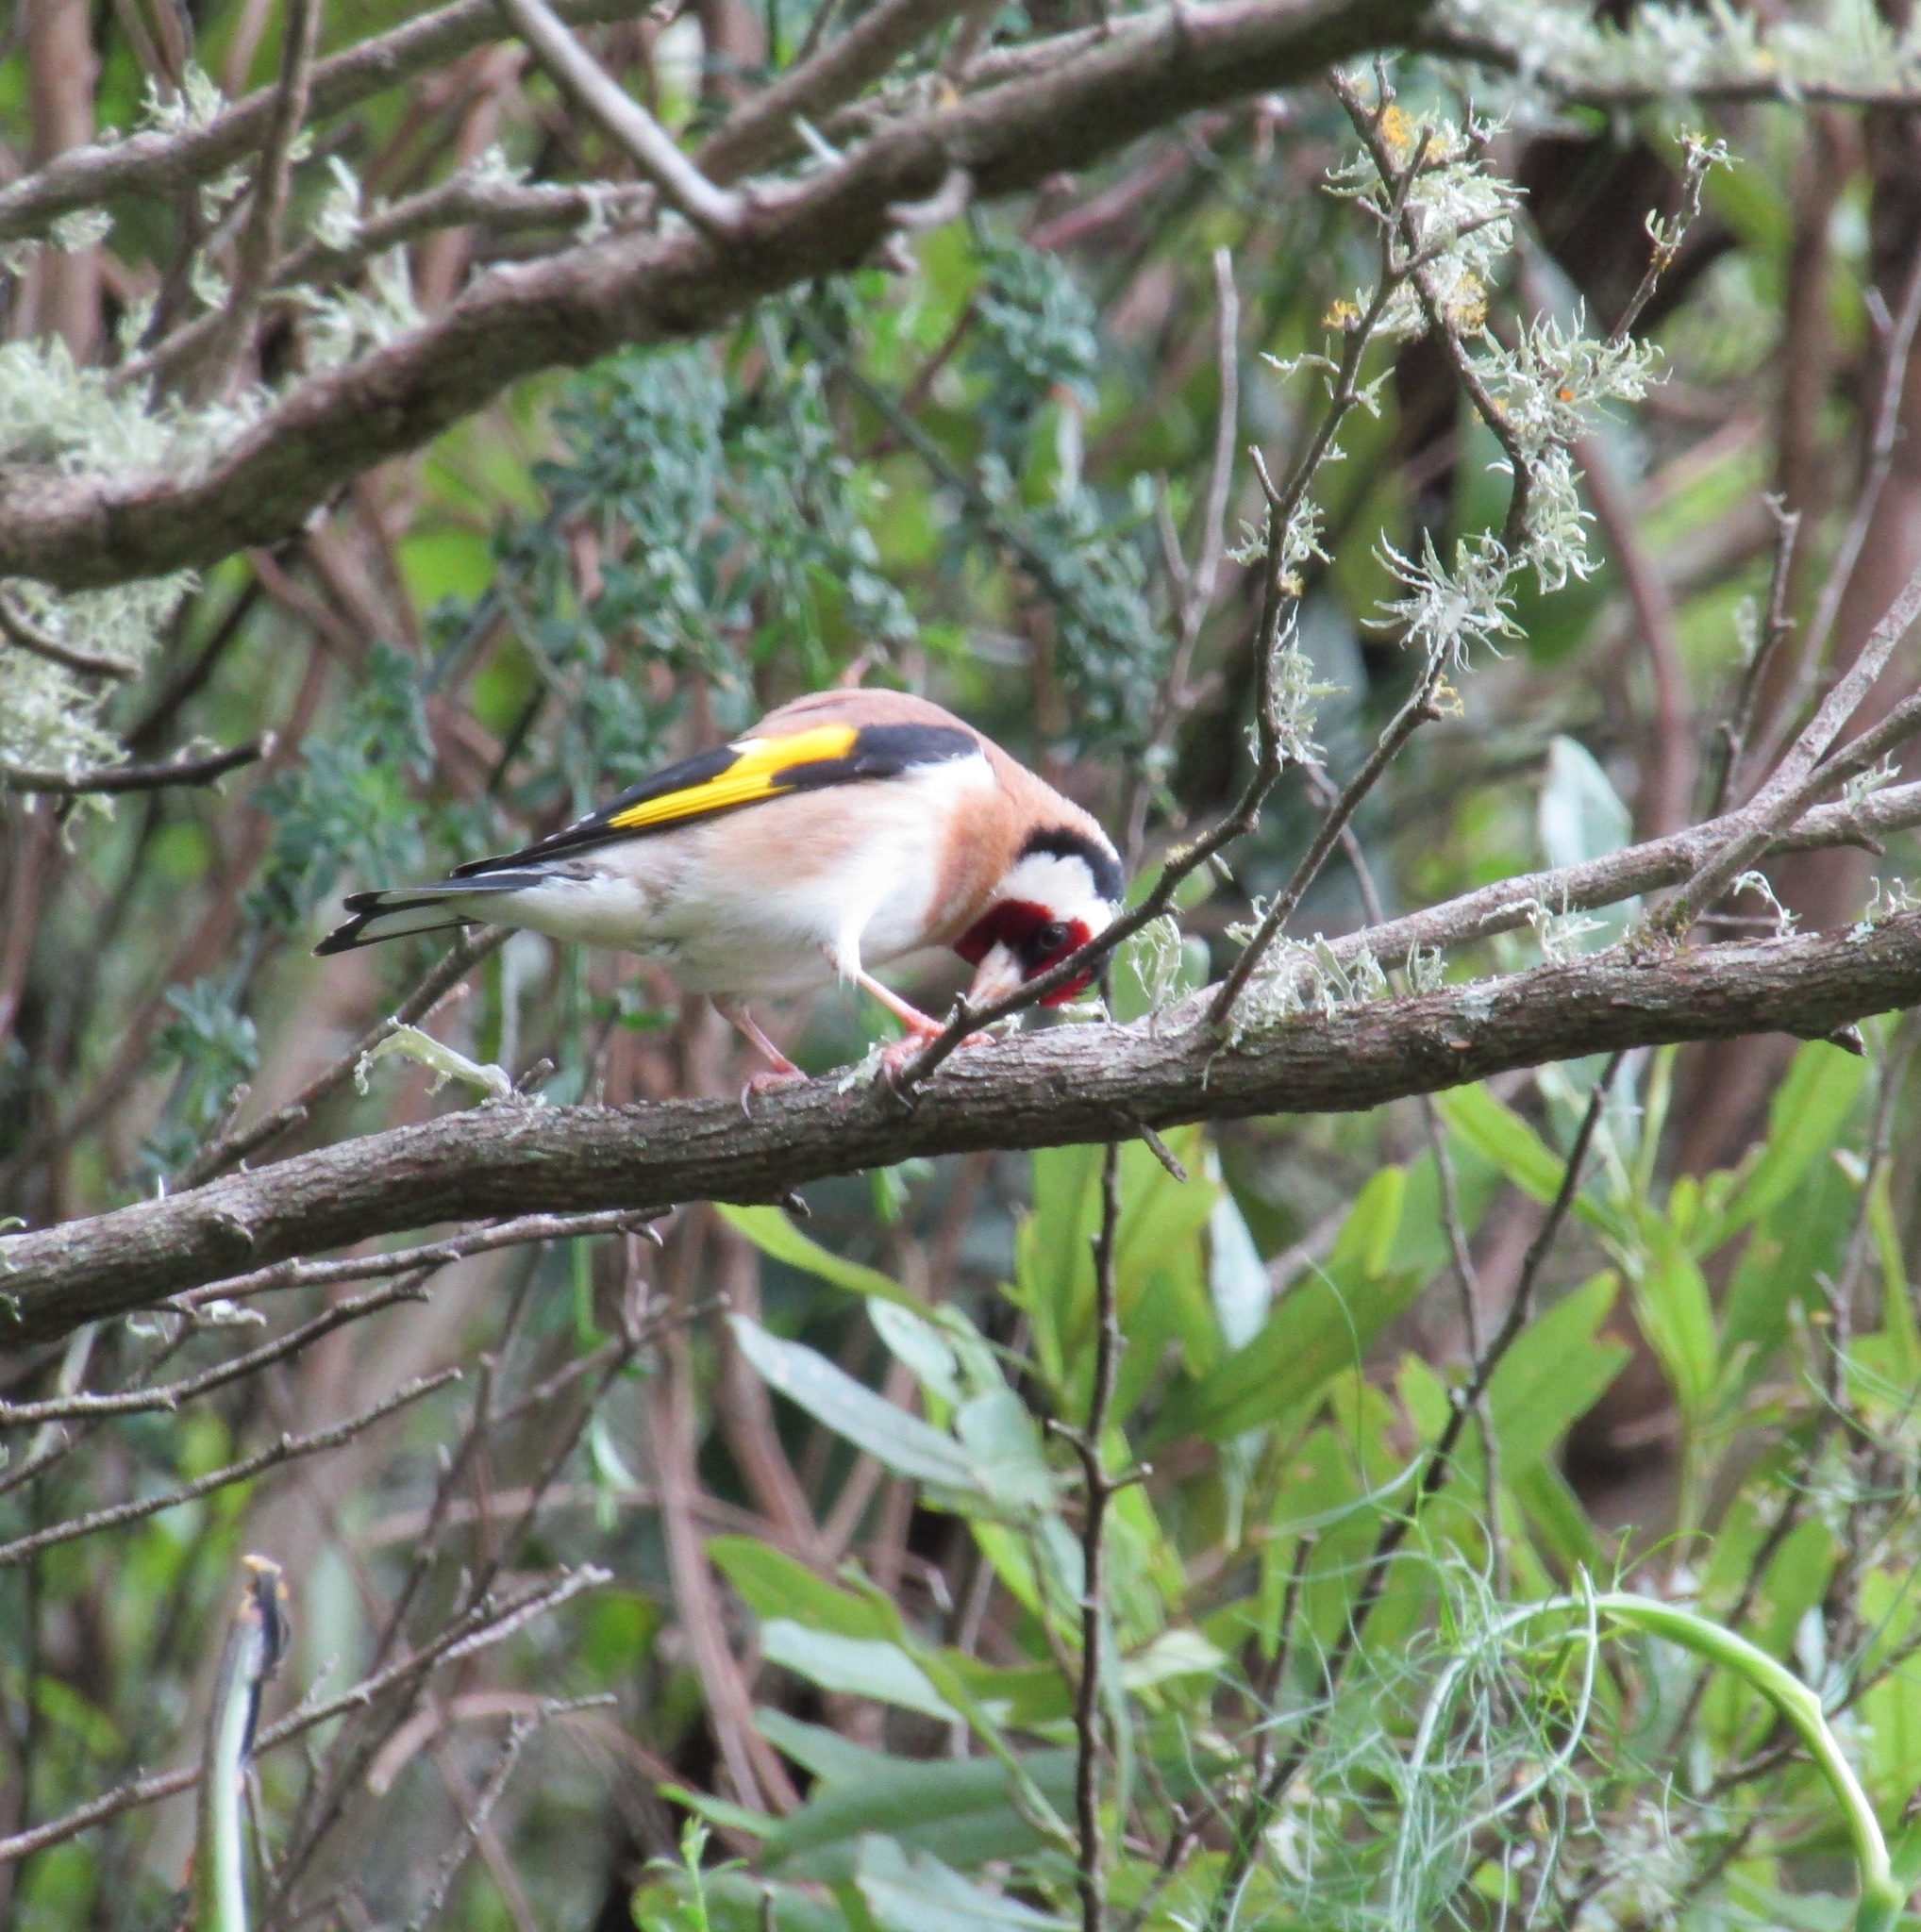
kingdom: Animalia
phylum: Chordata
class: Aves
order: Passeriformes
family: Fringillidae
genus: Carduelis
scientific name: Carduelis carduelis
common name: European goldfinch
